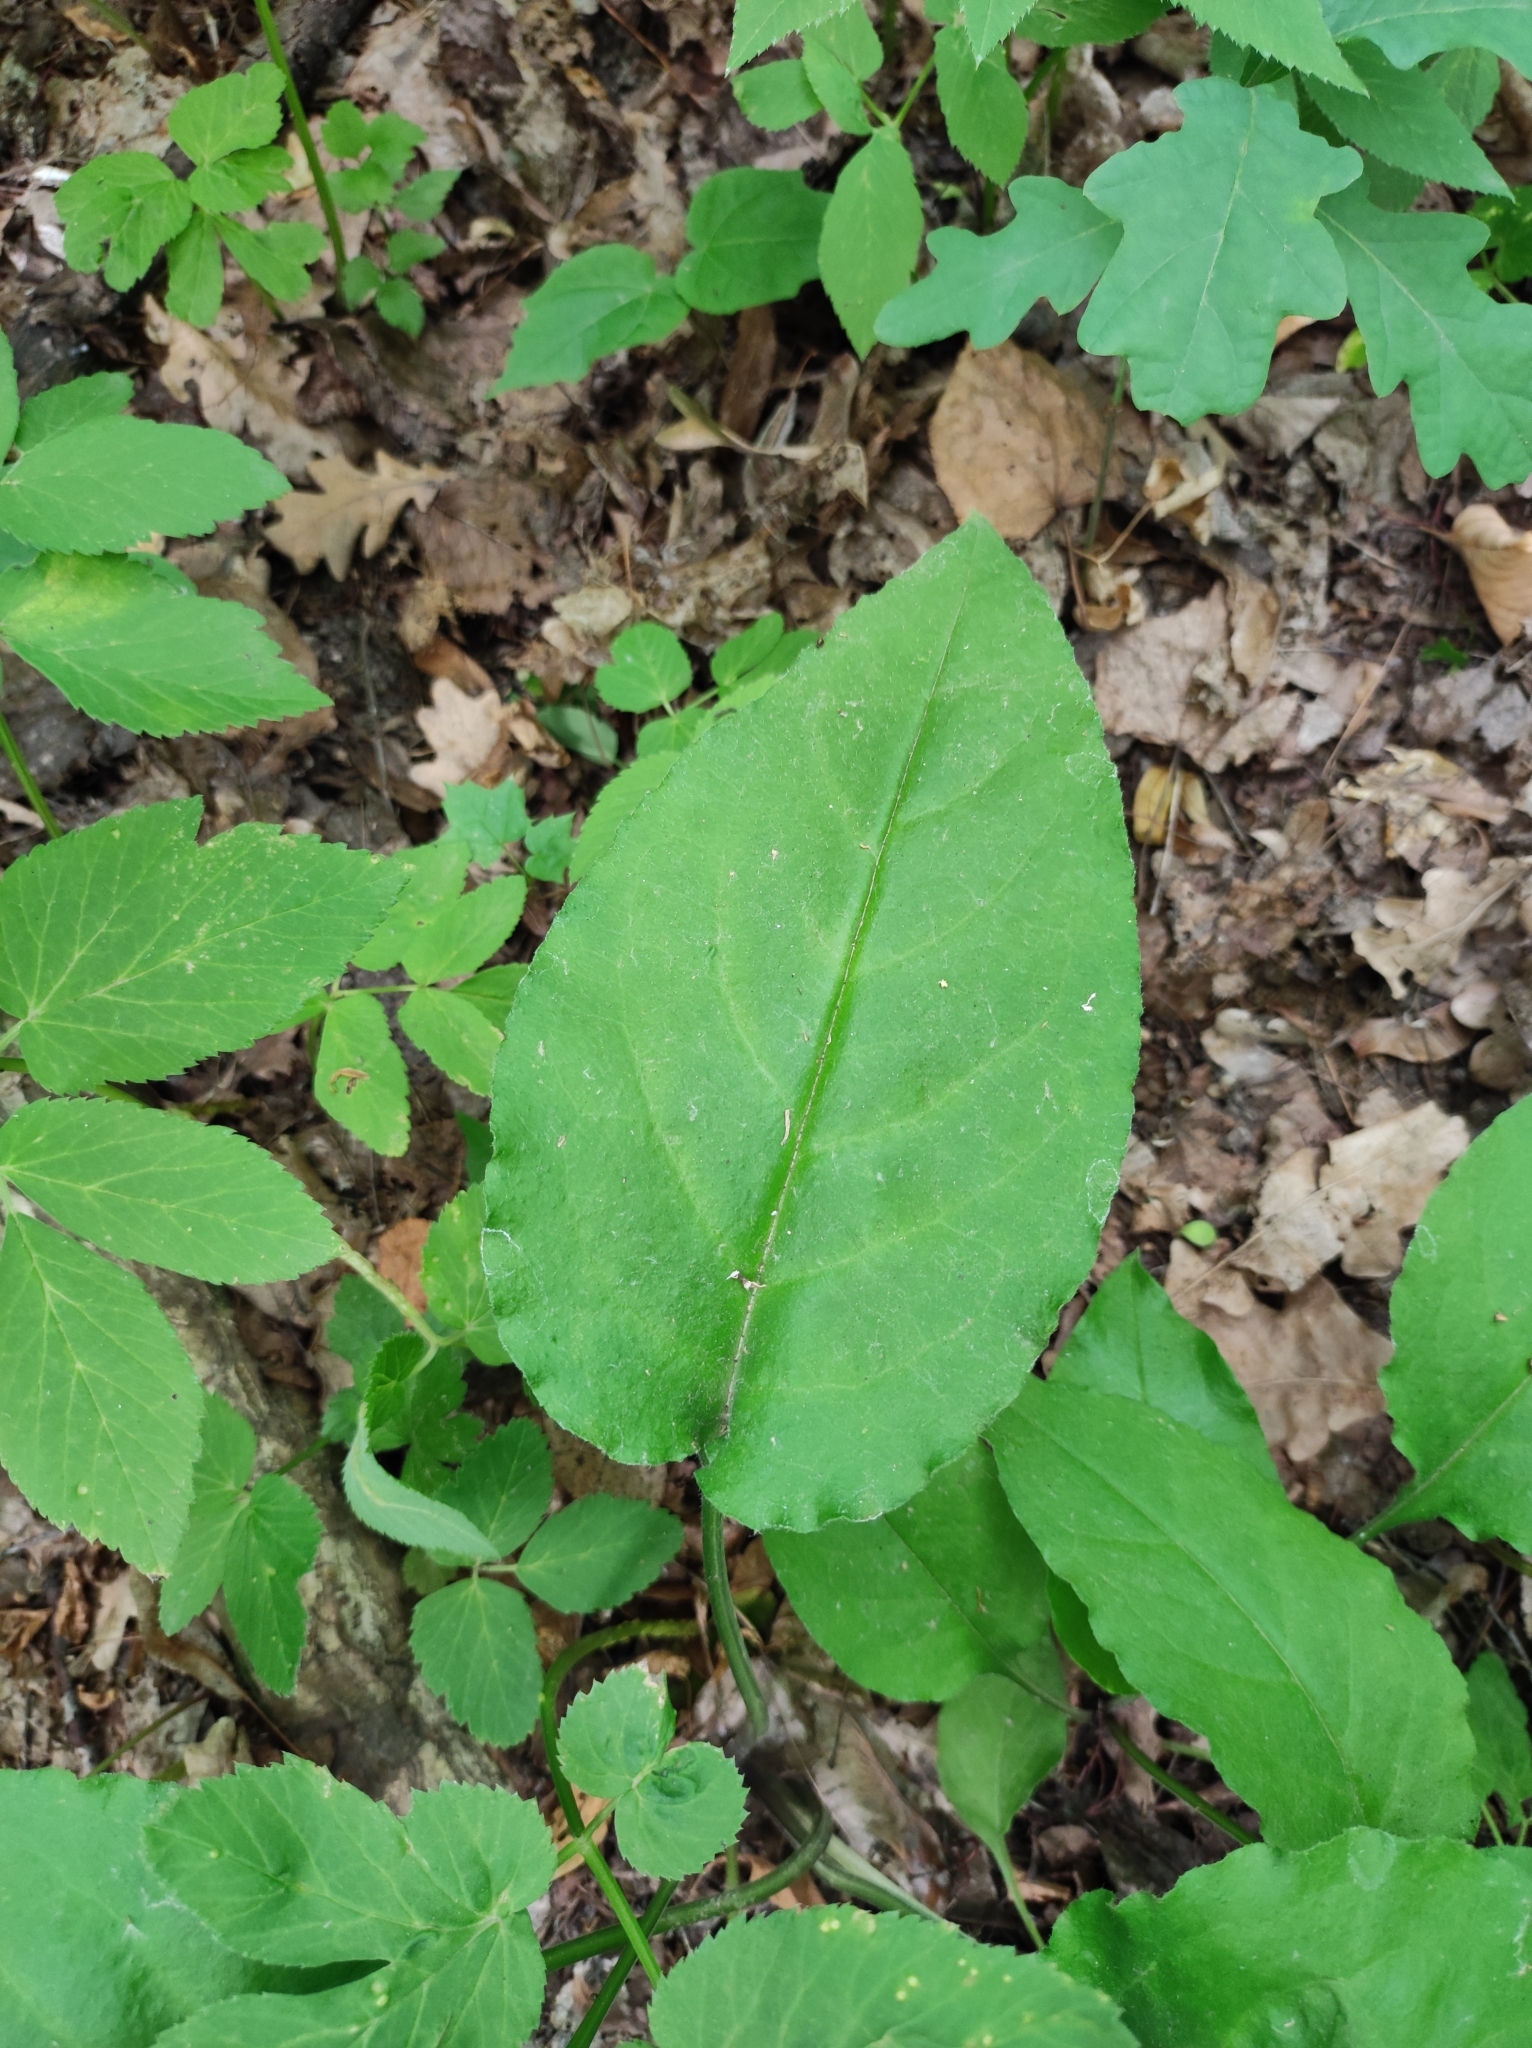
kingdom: Plantae
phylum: Tracheophyta
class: Magnoliopsida
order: Boraginales
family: Boraginaceae
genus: Pulmonaria
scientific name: Pulmonaria obscura
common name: Suffolk lungwort
